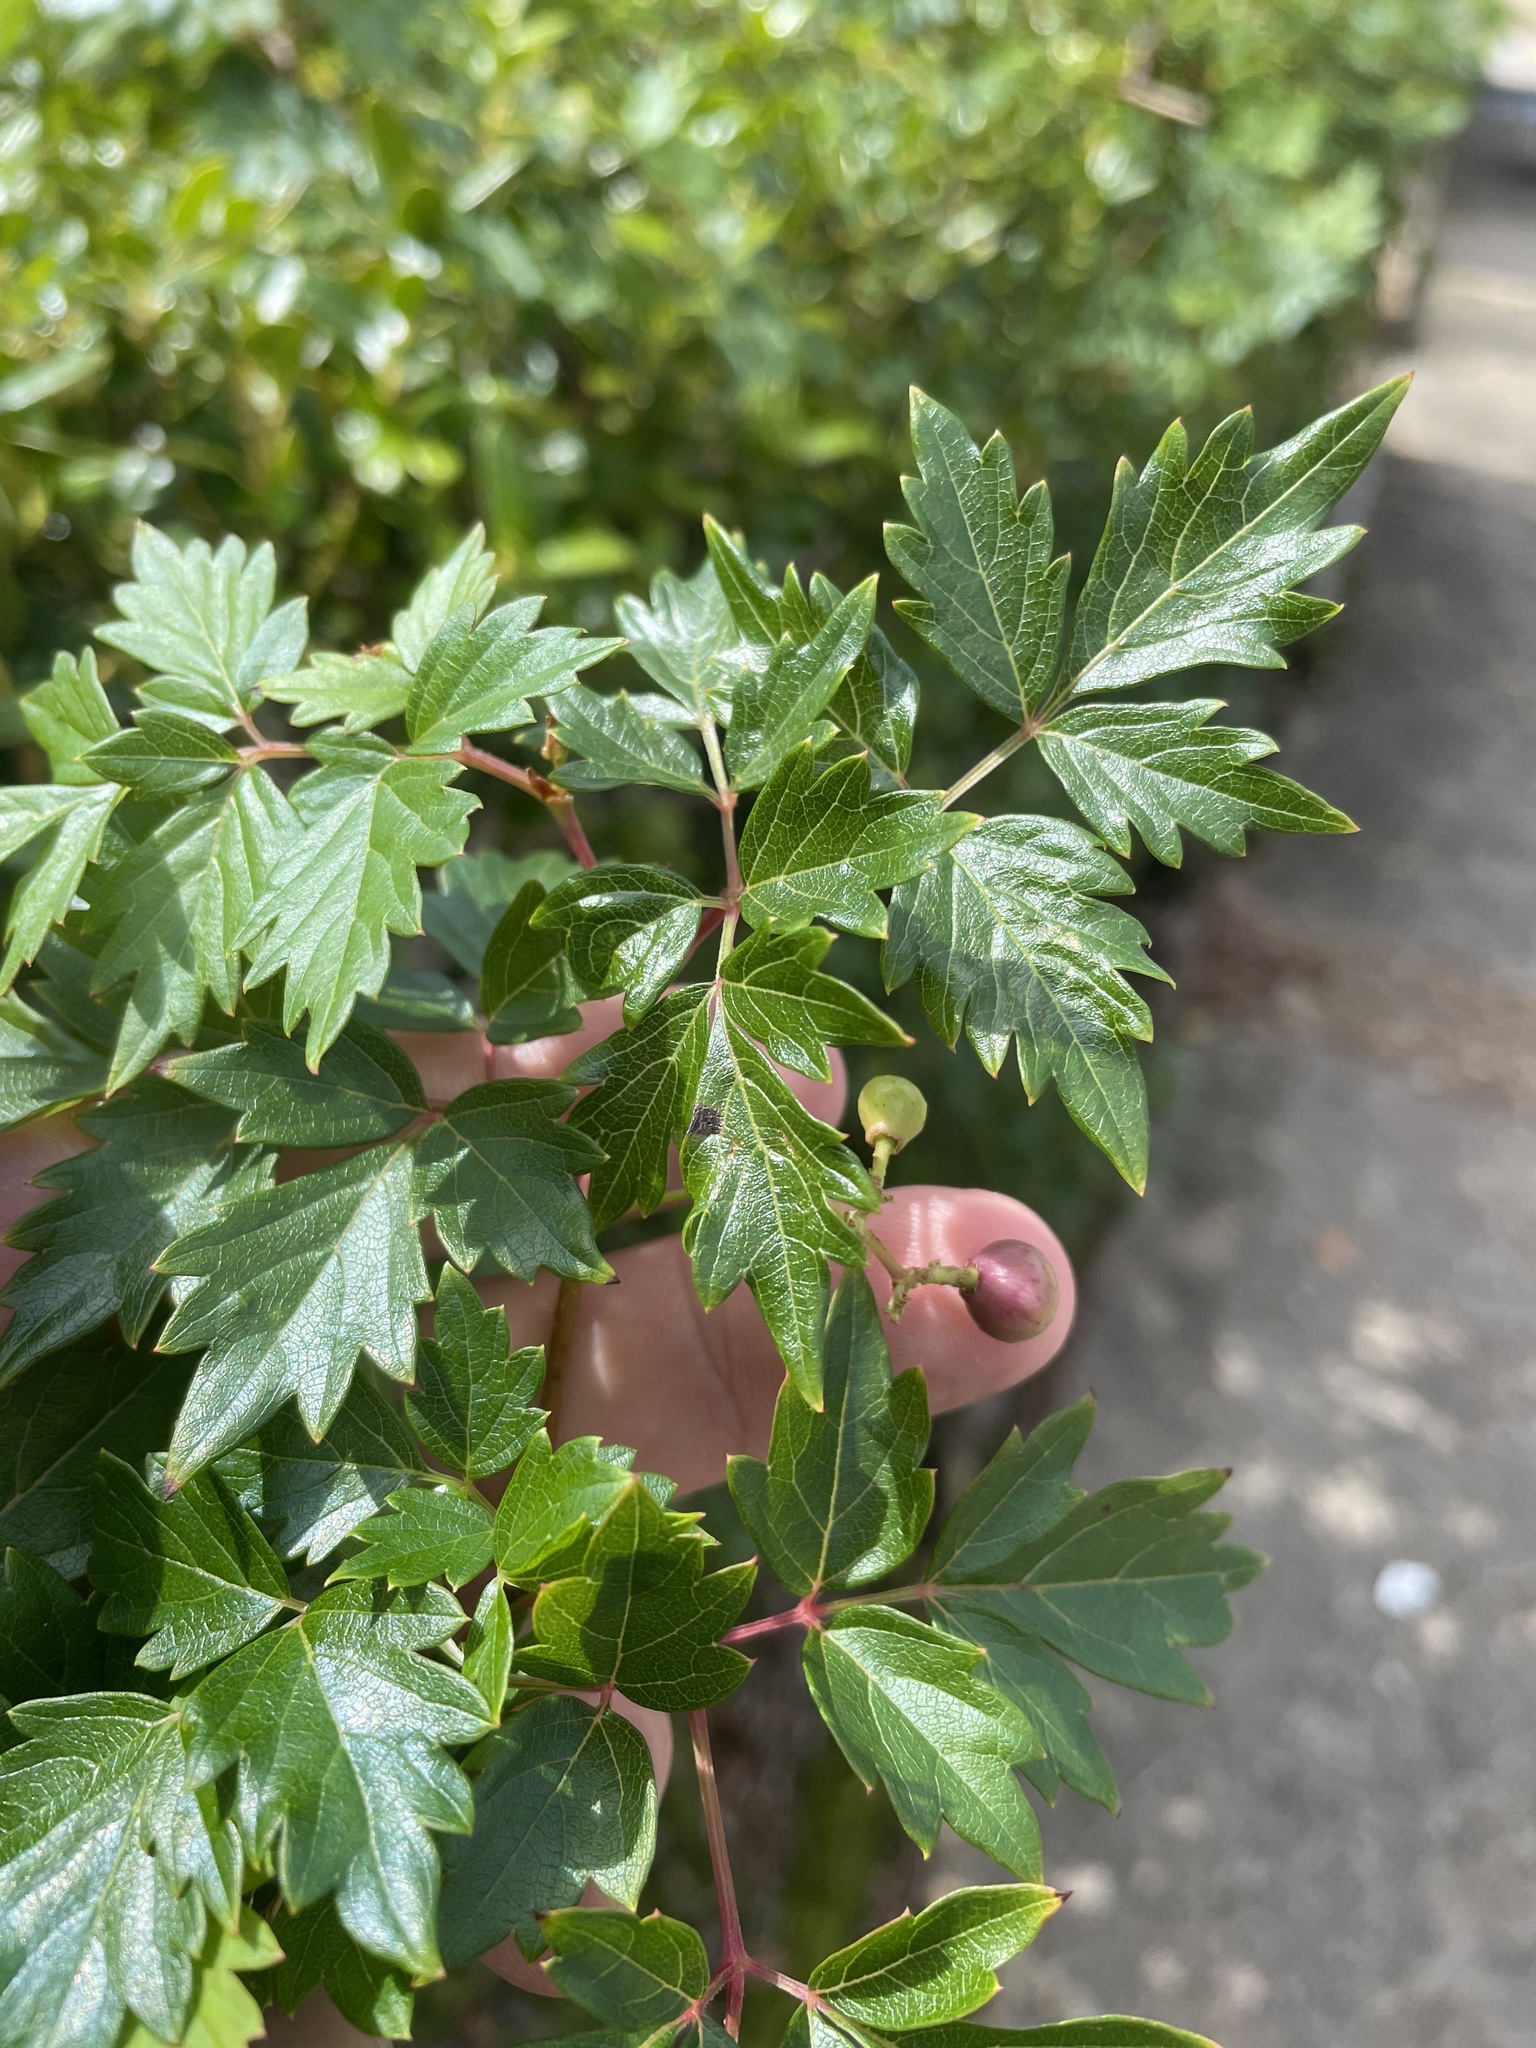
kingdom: Plantae
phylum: Tracheophyta
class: Magnoliopsida
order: Vitales
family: Vitaceae
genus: Nekemias
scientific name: Nekemias arborea
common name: Peppervine
